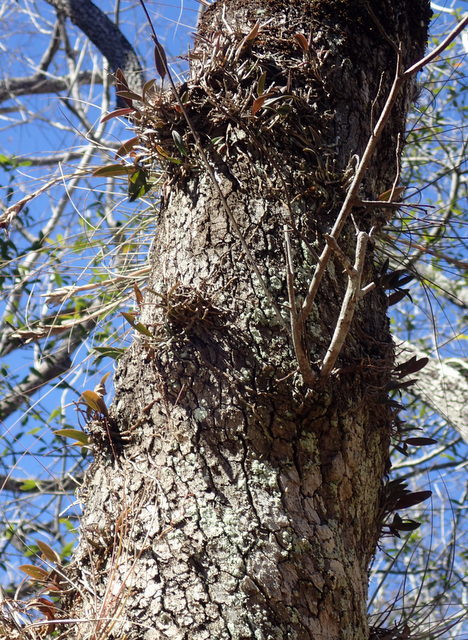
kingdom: Plantae
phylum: Tracheophyta
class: Liliopsida
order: Asparagales
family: Orchidaceae
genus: Epidendrum
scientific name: Epidendrum conopseum
